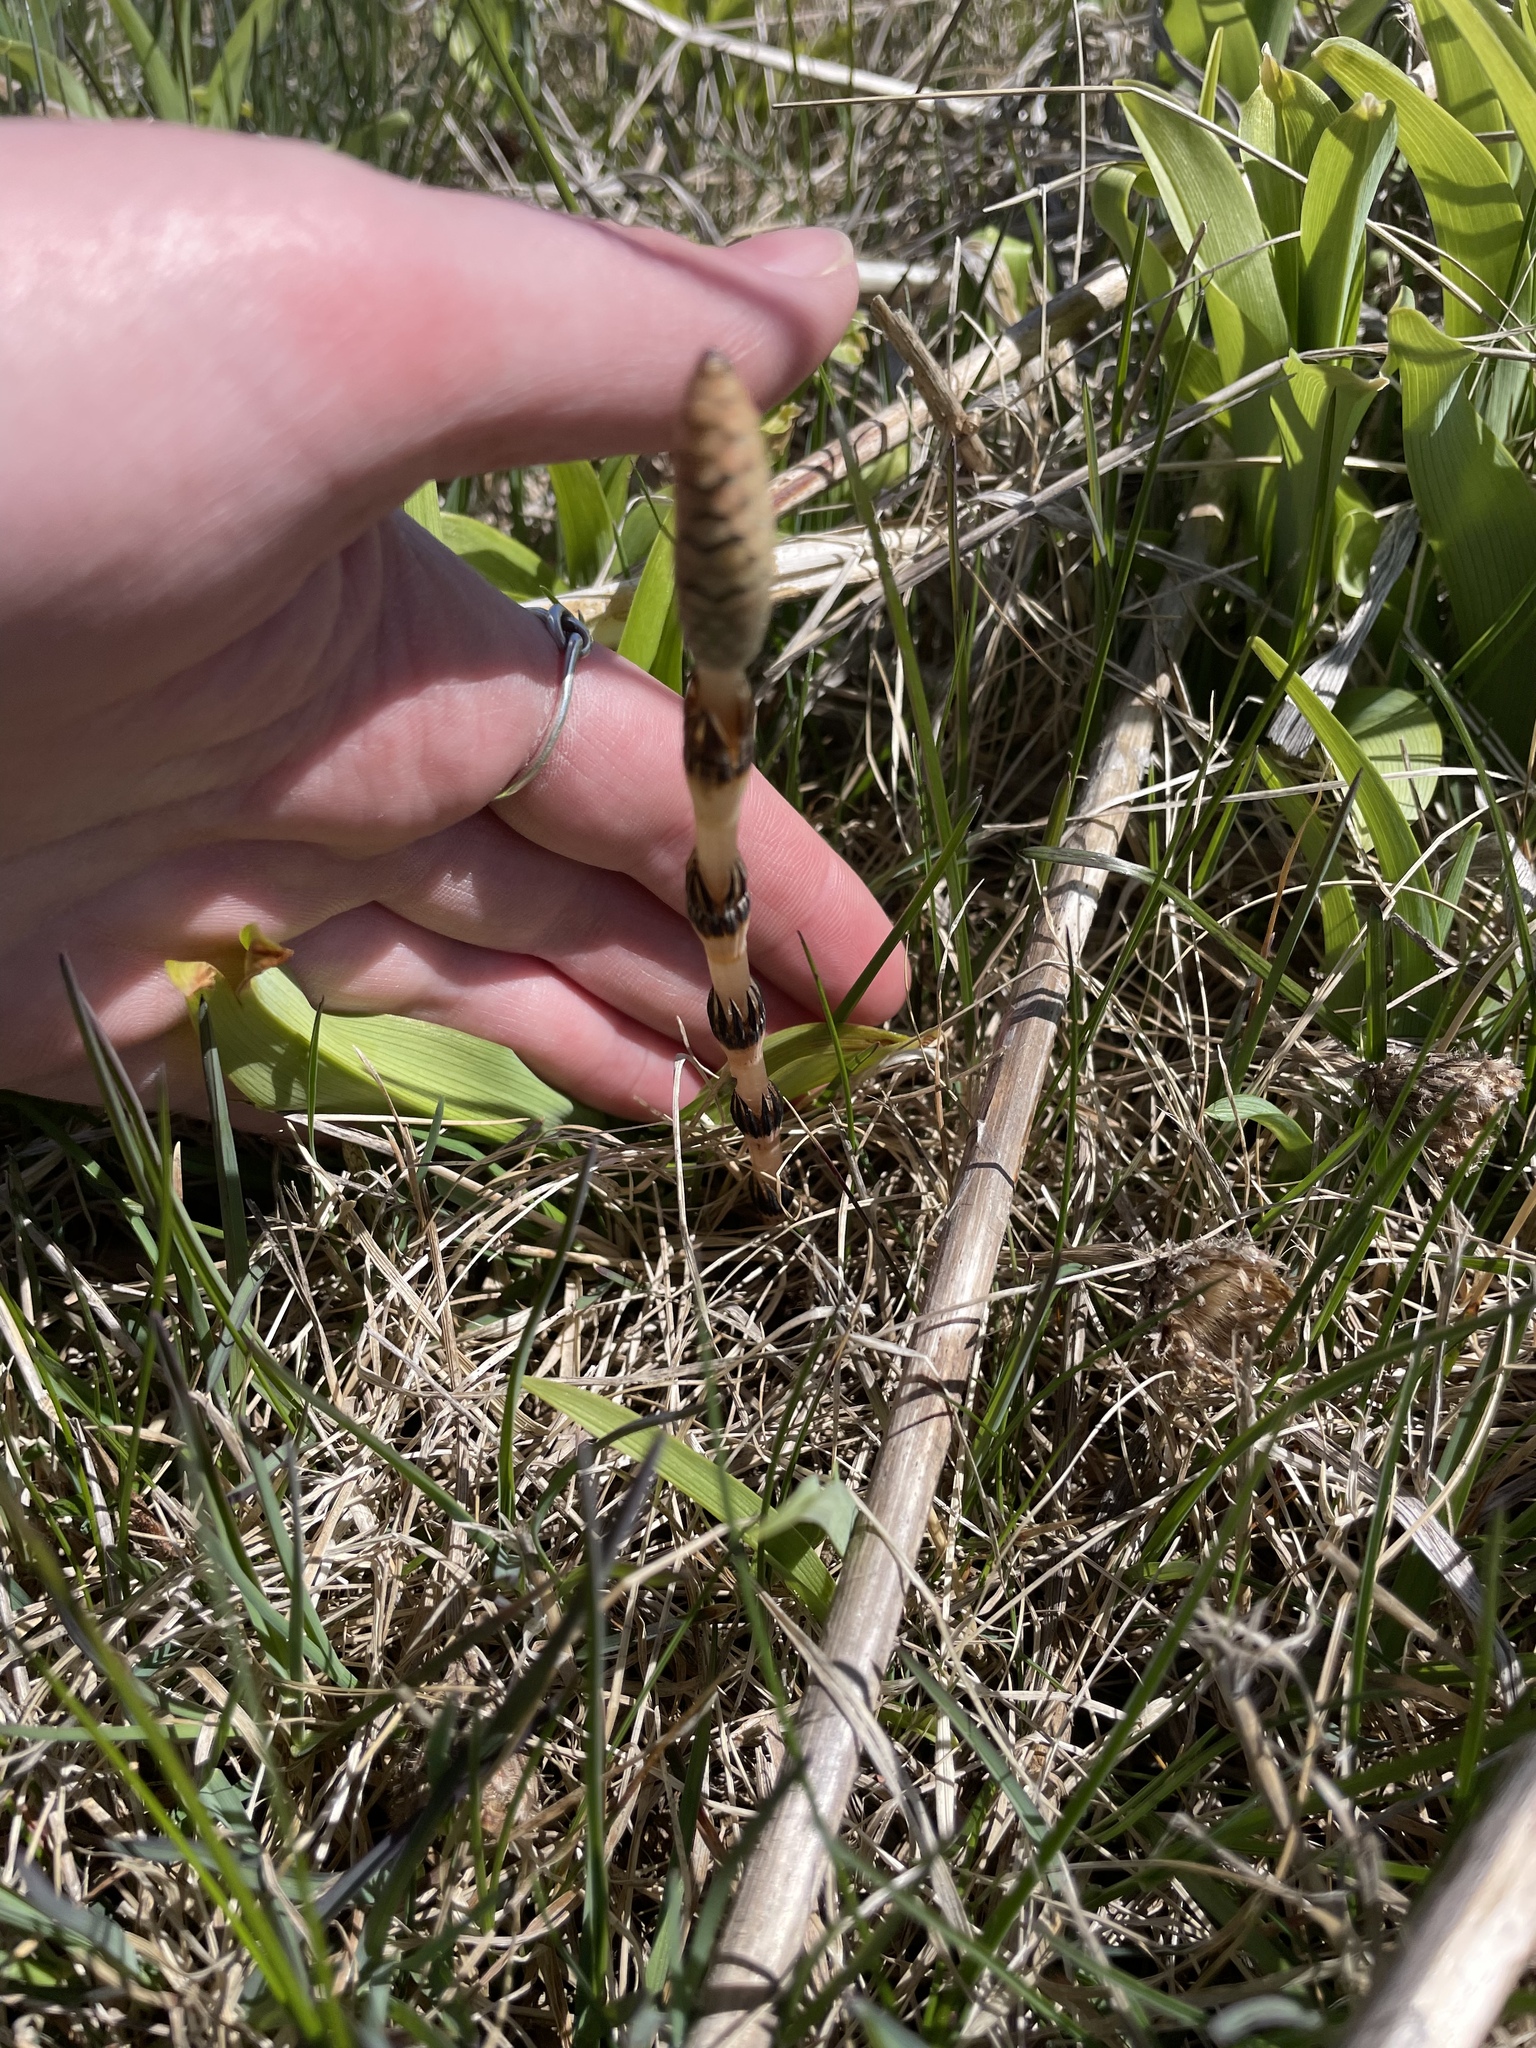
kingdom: Plantae
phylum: Tracheophyta
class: Polypodiopsida
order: Equisetales
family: Equisetaceae
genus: Equisetum
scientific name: Equisetum arvense
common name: Field horsetail
